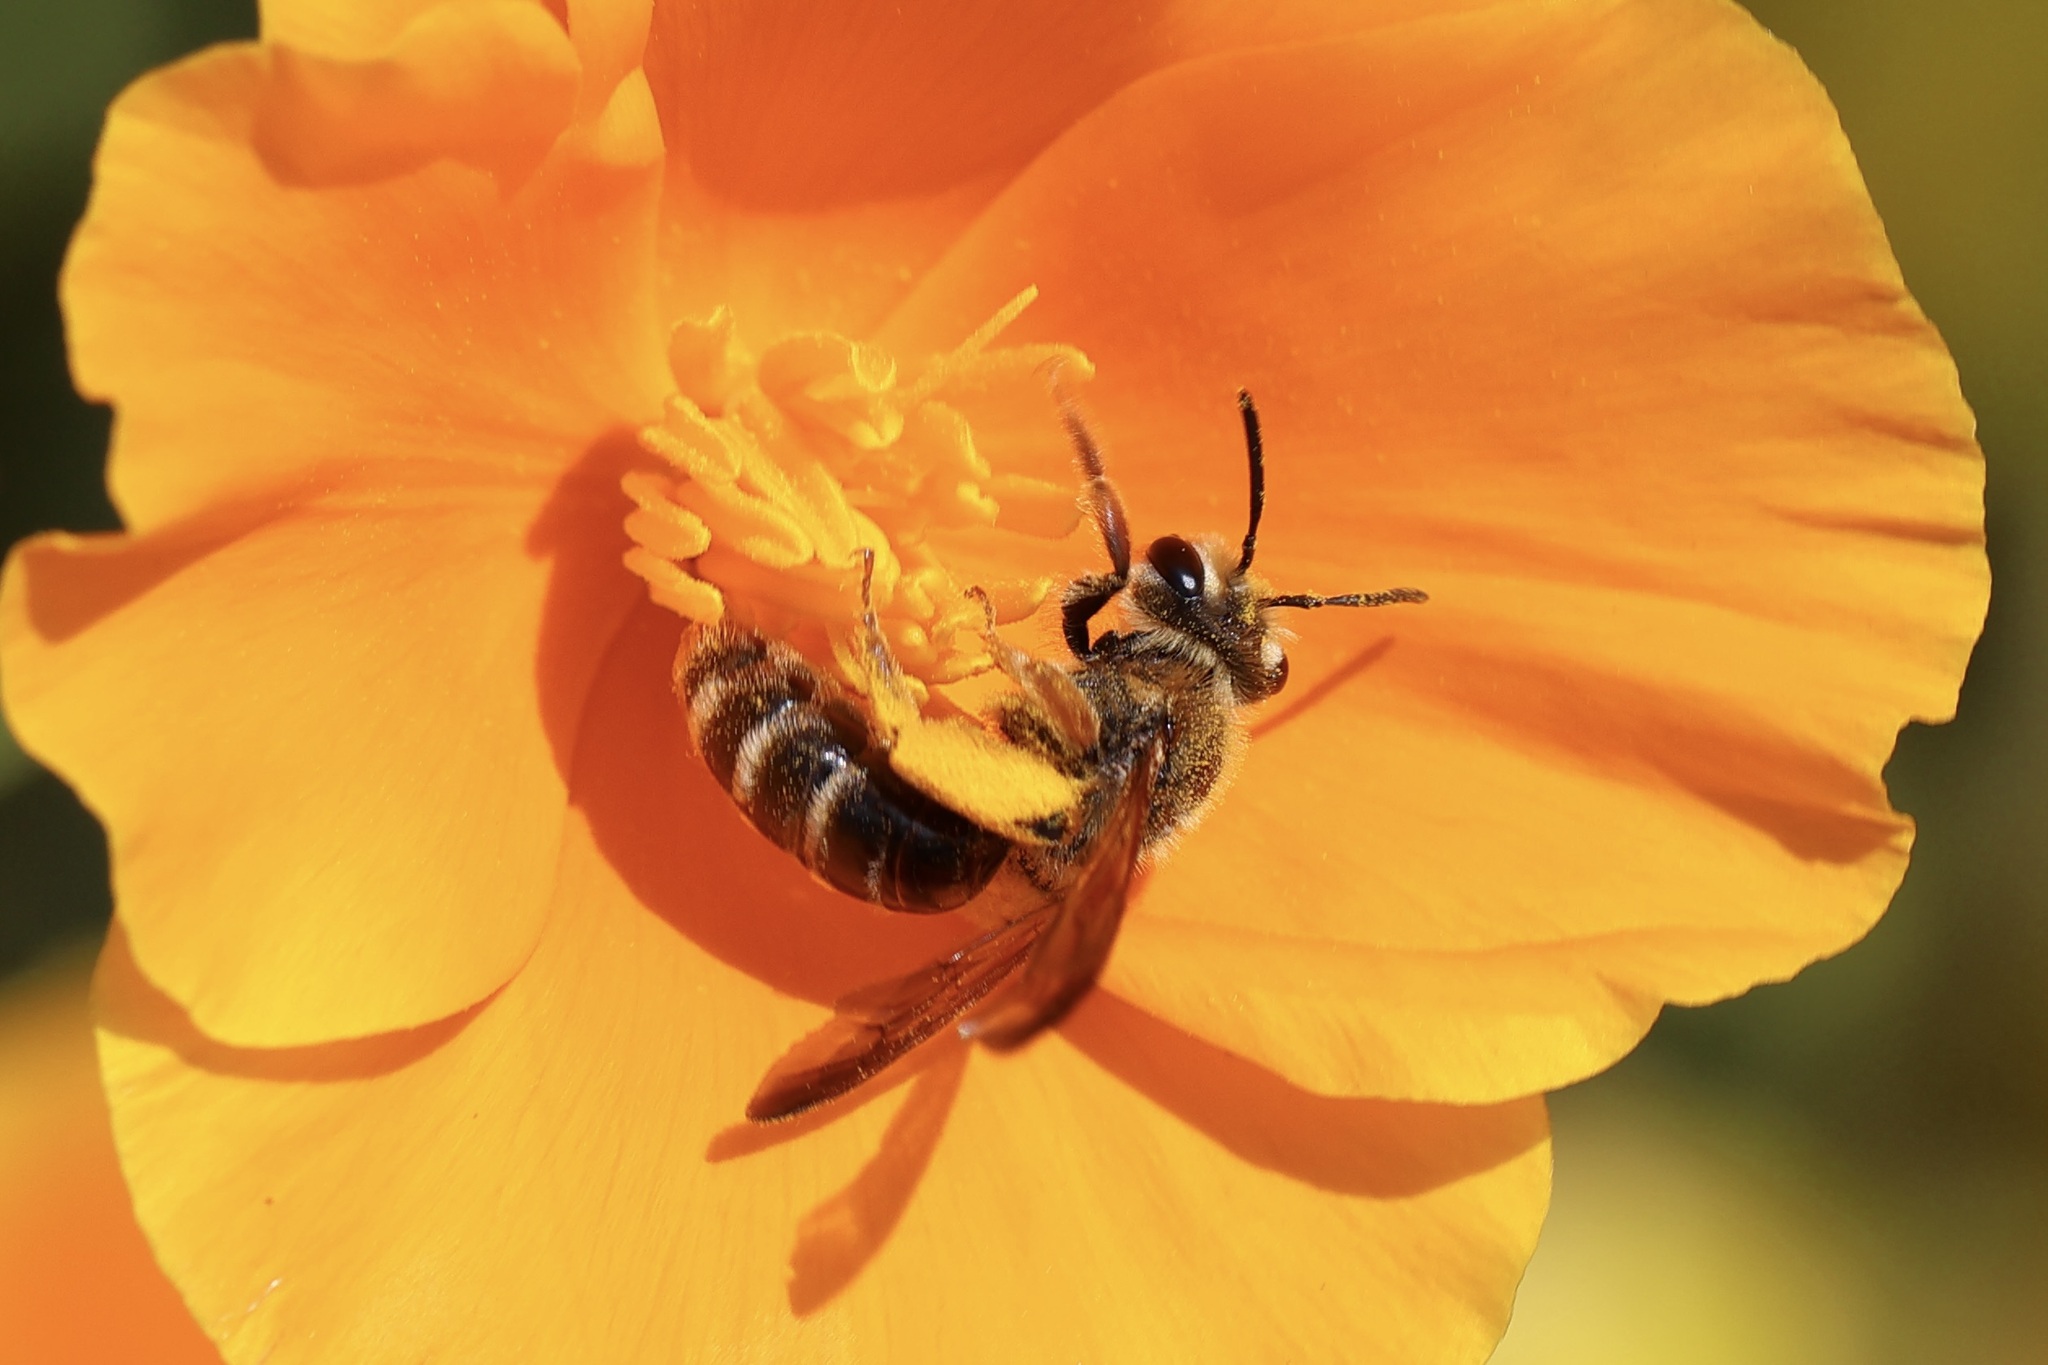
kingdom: Animalia
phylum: Arthropoda
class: Insecta
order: Hymenoptera
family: Andrenidae
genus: Andrena
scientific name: Andrena prunorum
